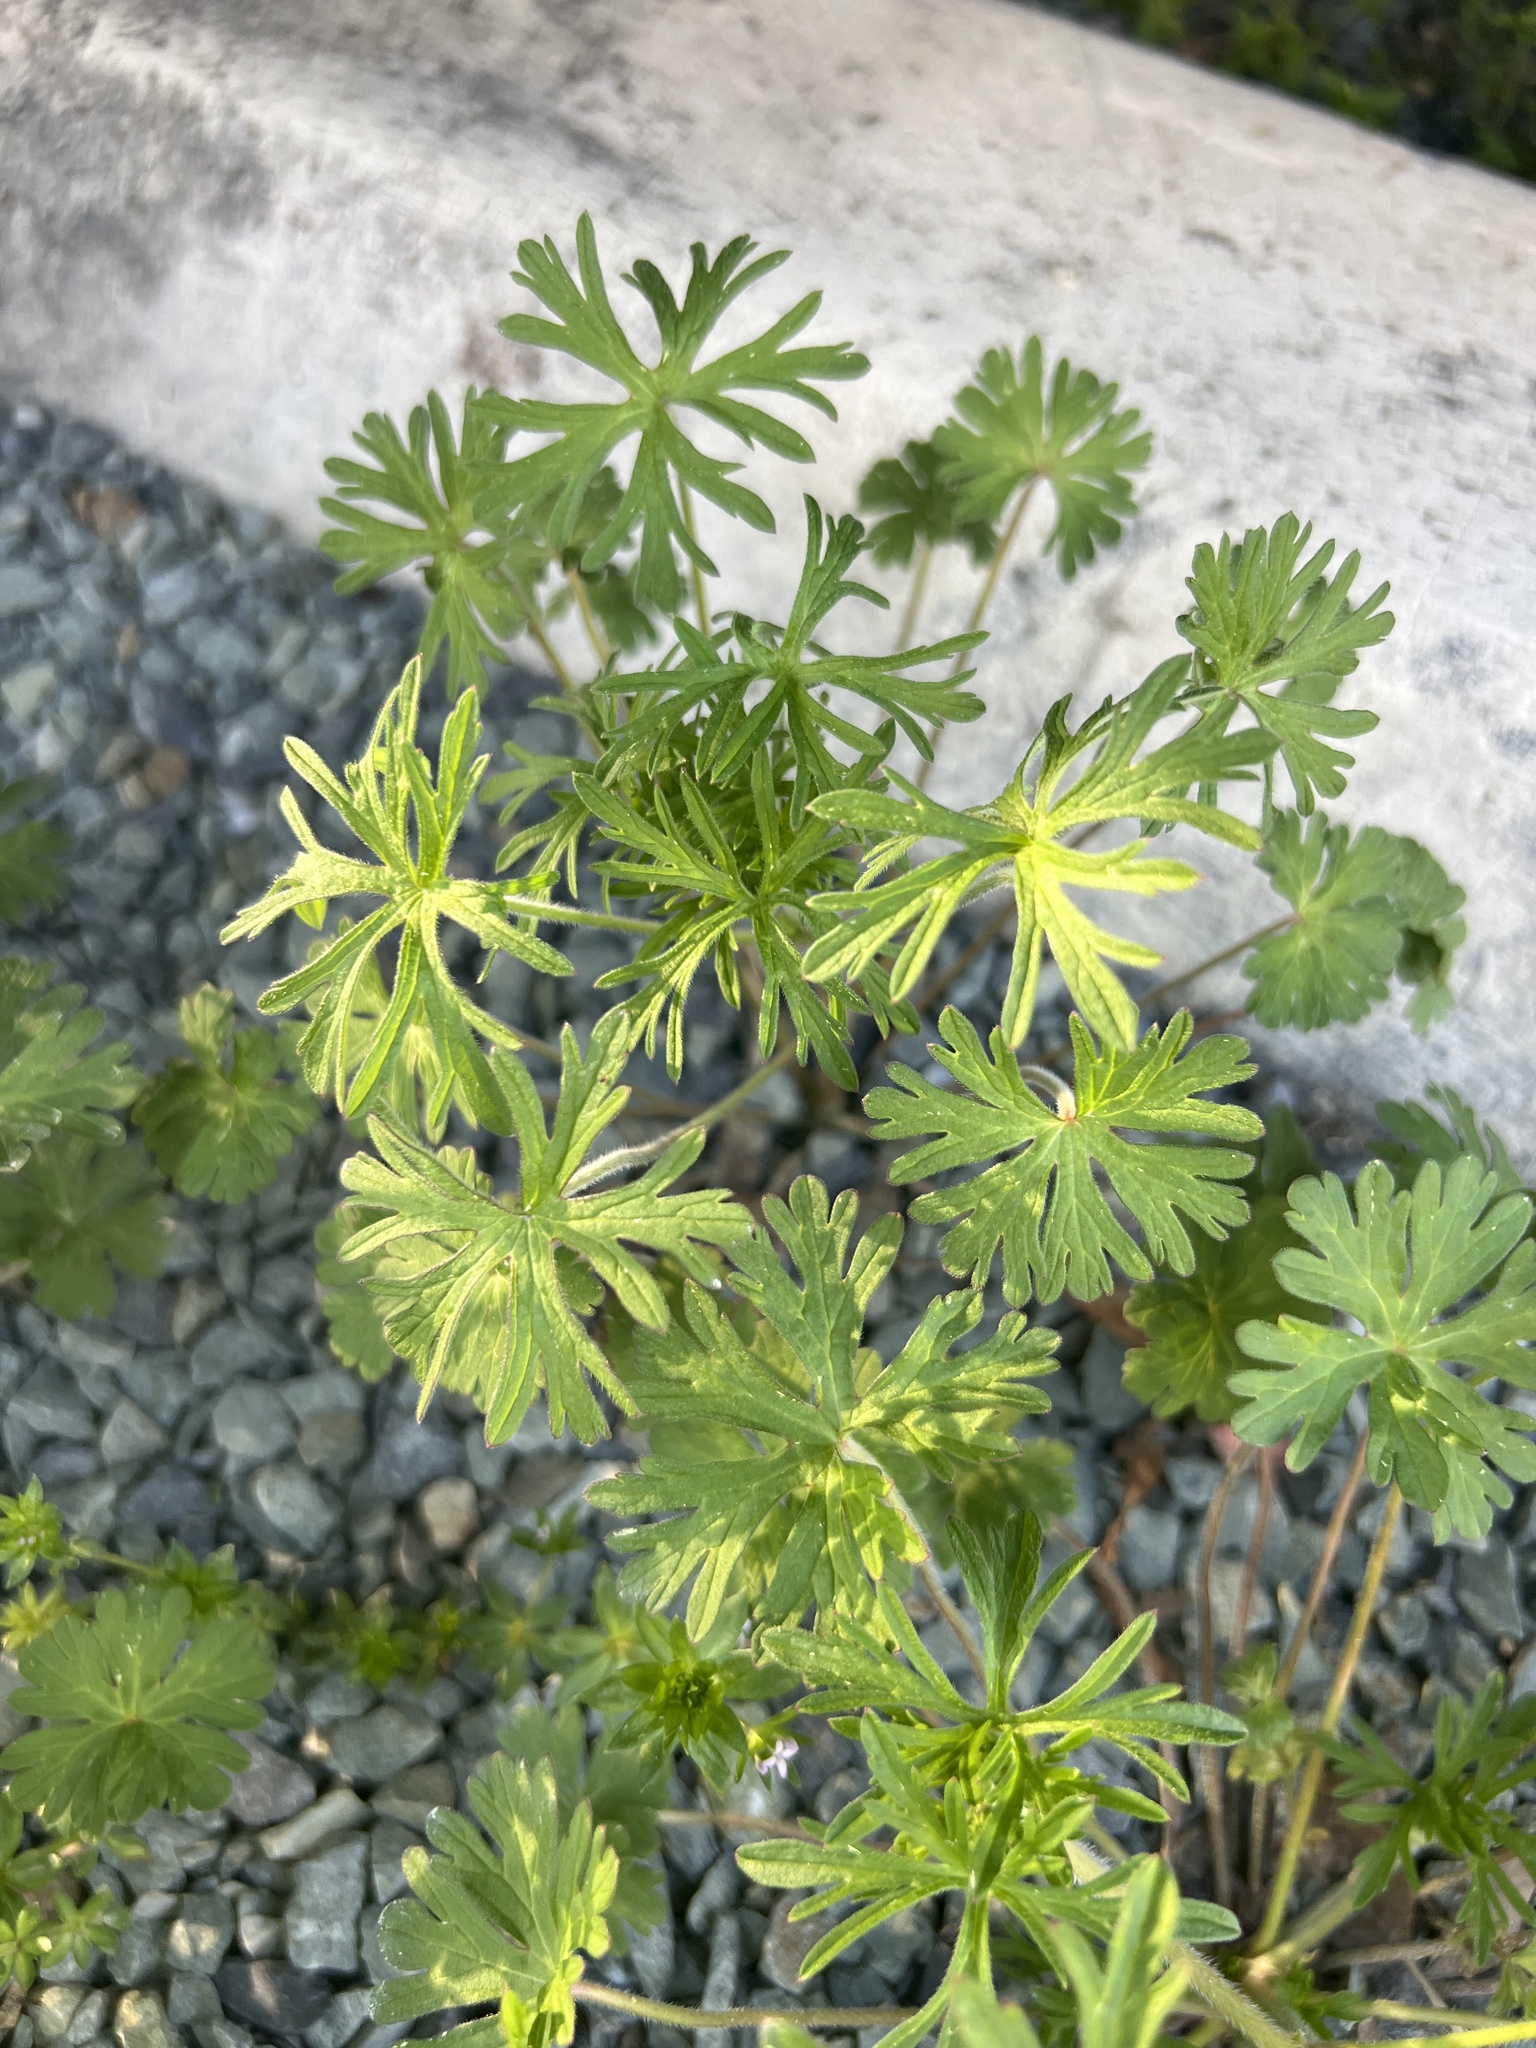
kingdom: Plantae
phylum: Tracheophyta
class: Magnoliopsida
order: Geraniales
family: Geraniaceae
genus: Geranium
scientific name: Geranium carolinianum
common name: Carolina crane's-bill
